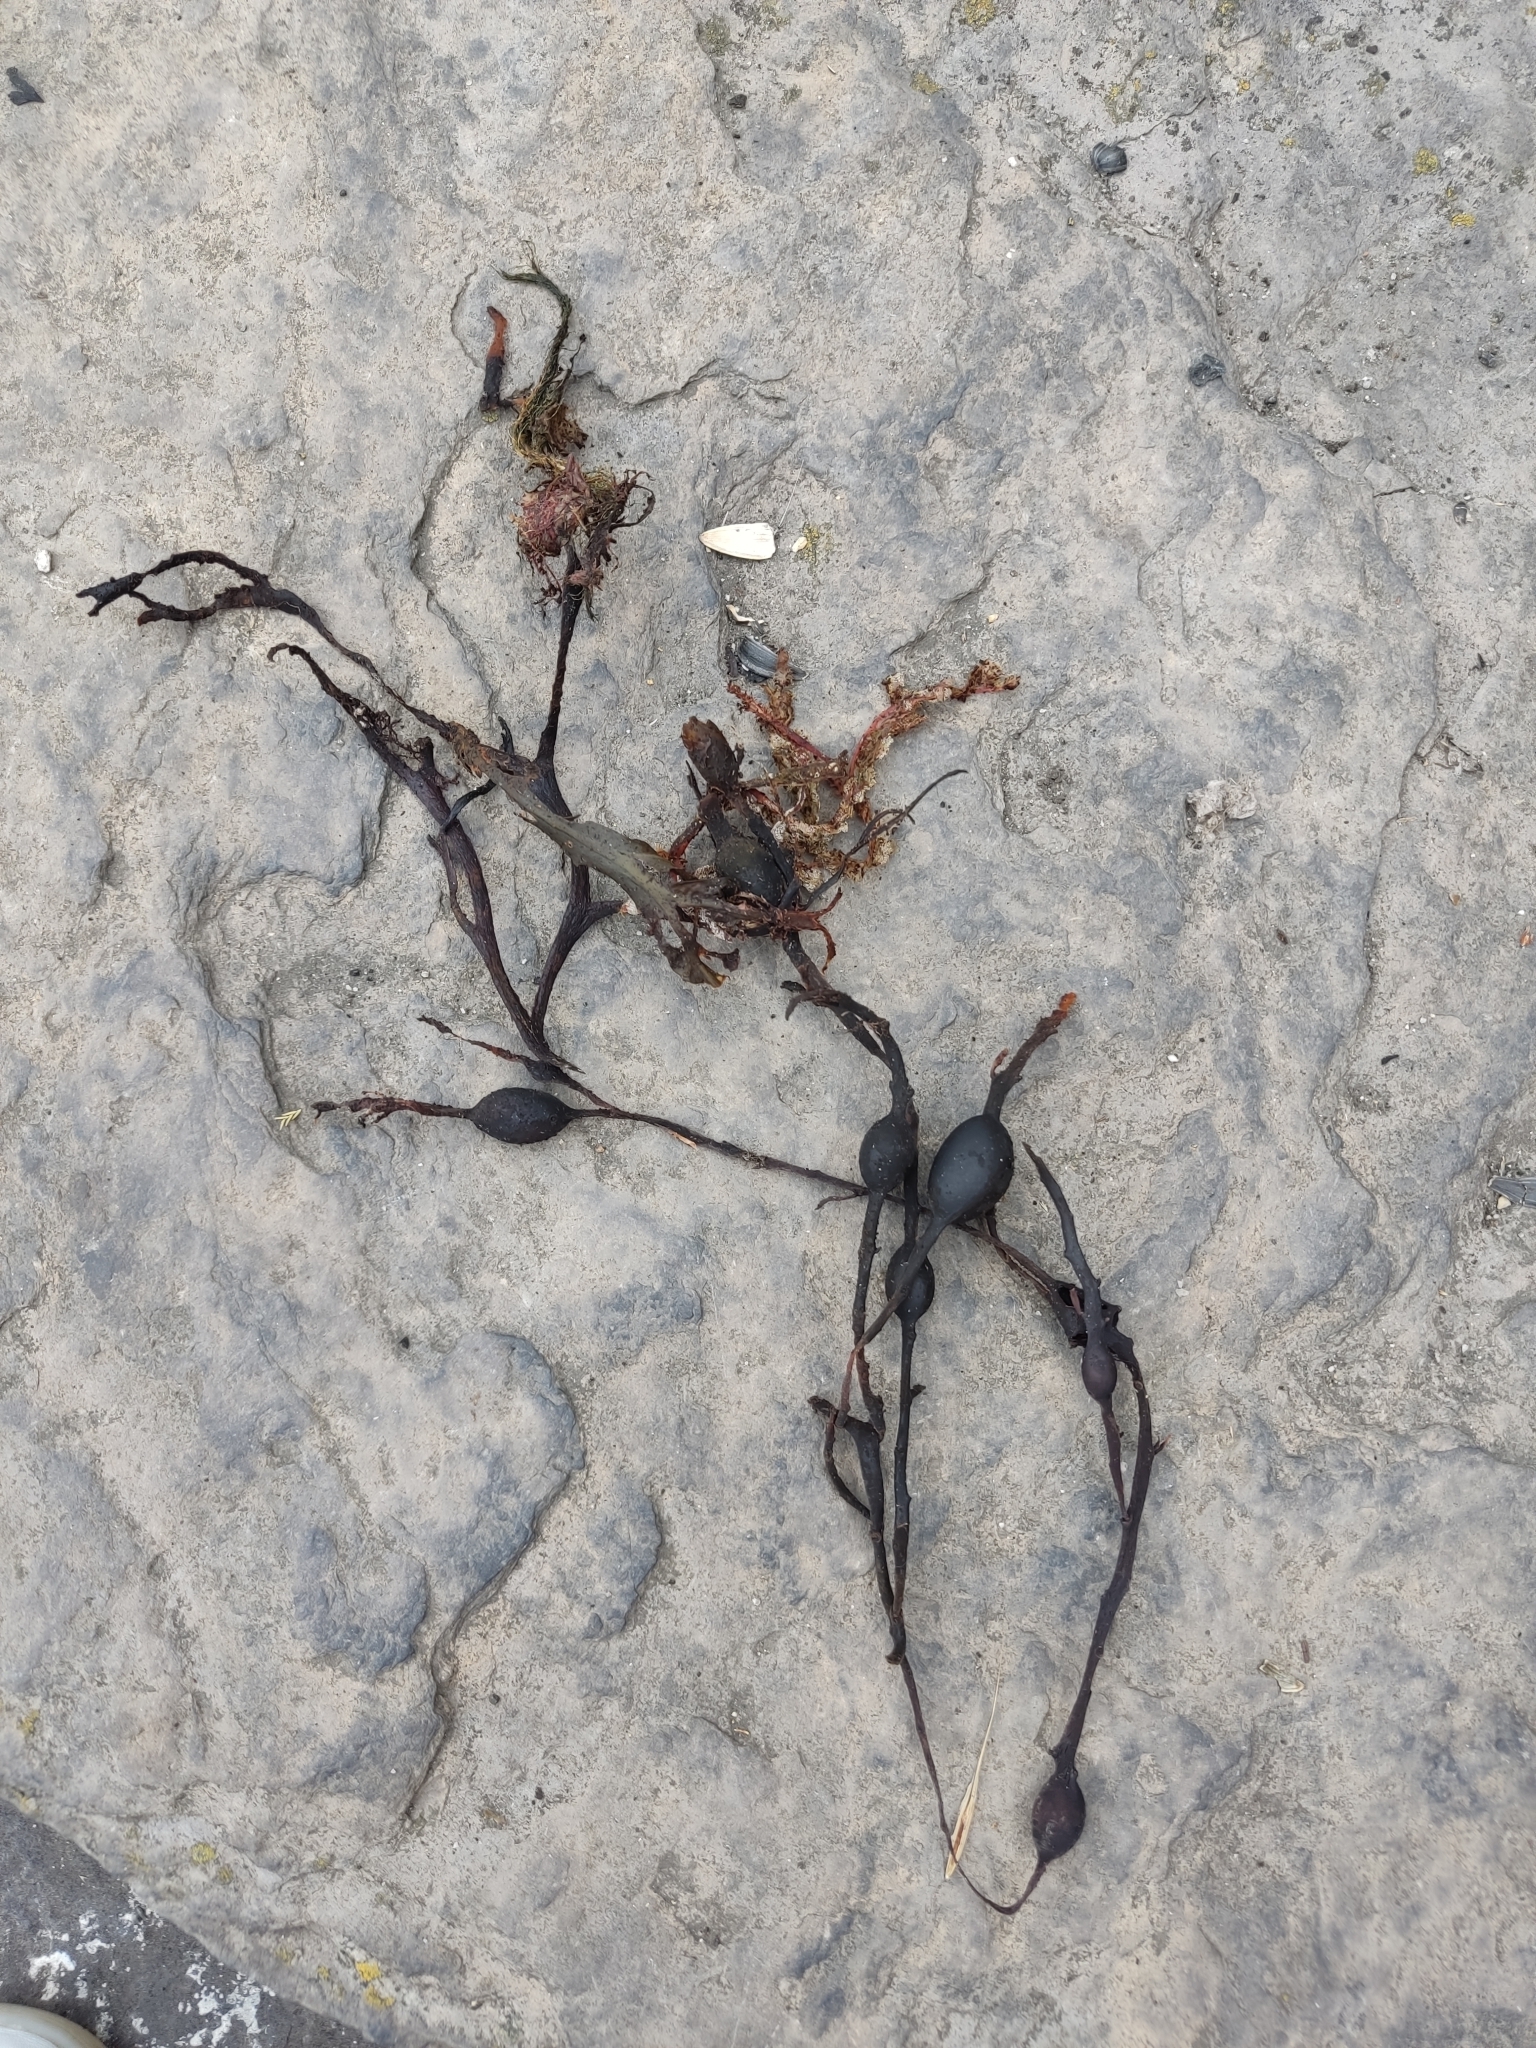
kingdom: Chromista
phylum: Ochrophyta
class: Phaeophyceae
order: Fucales
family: Fucaceae
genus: Ascophyllum
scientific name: Ascophyllum nodosum
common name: Knotted wrack
